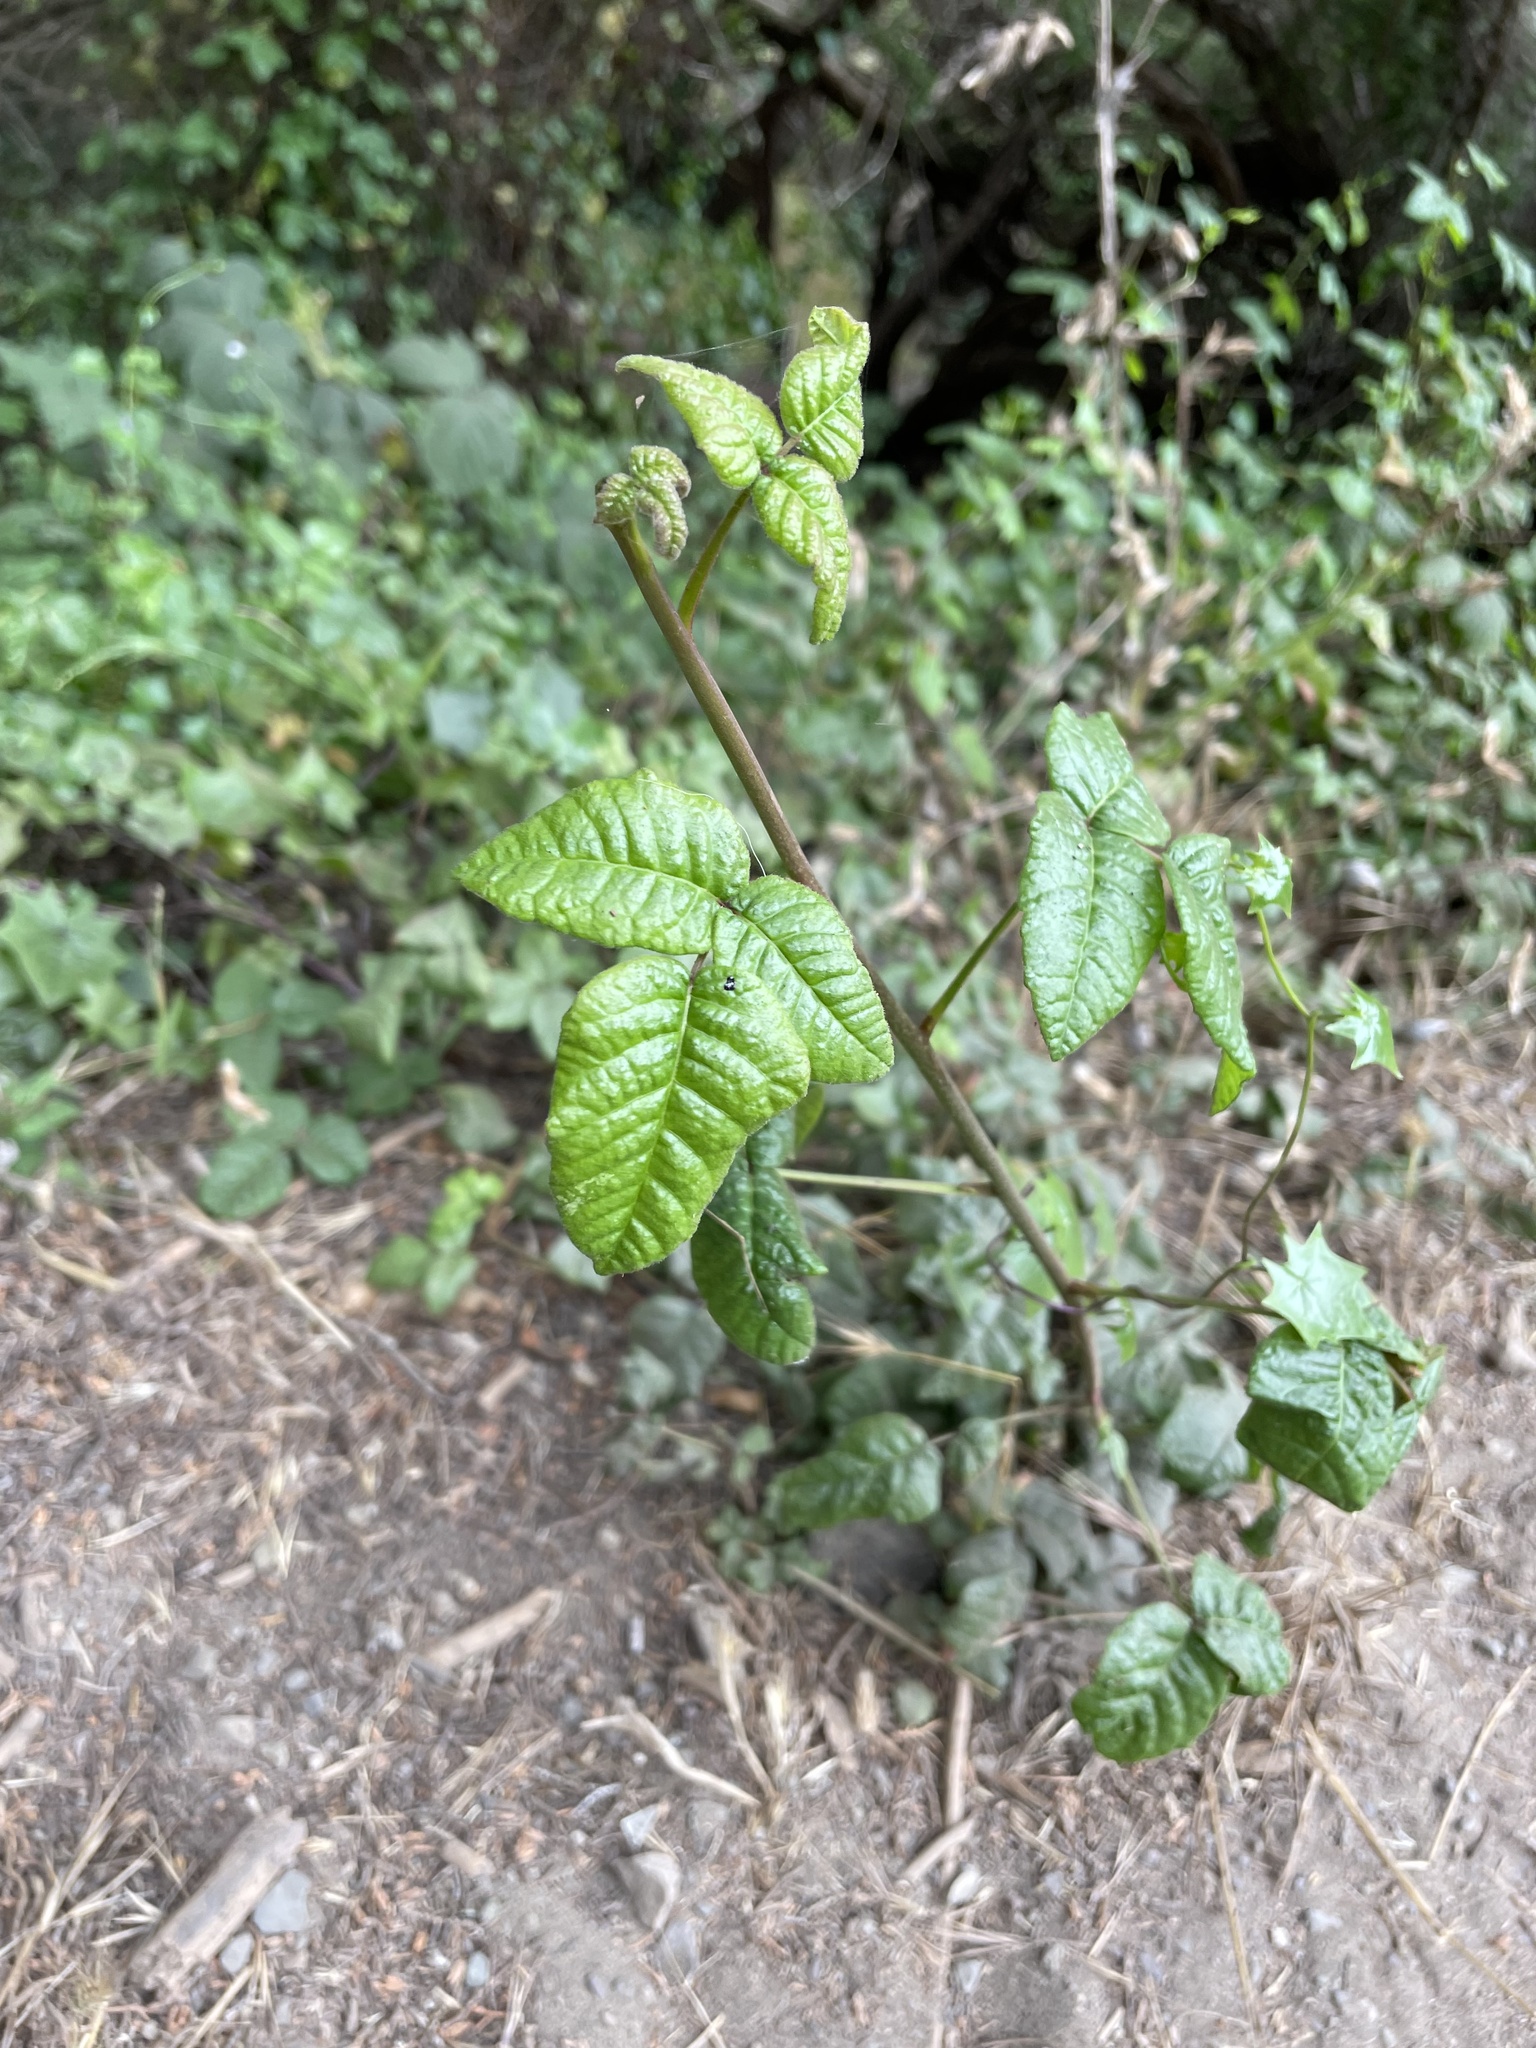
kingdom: Plantae
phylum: Tracheophyta
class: Magnoliopsida
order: Sapindales
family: Anacardiaceae
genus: Toxicodendron
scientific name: Toxicodendron diversilobum
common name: Pacific poison-oak
